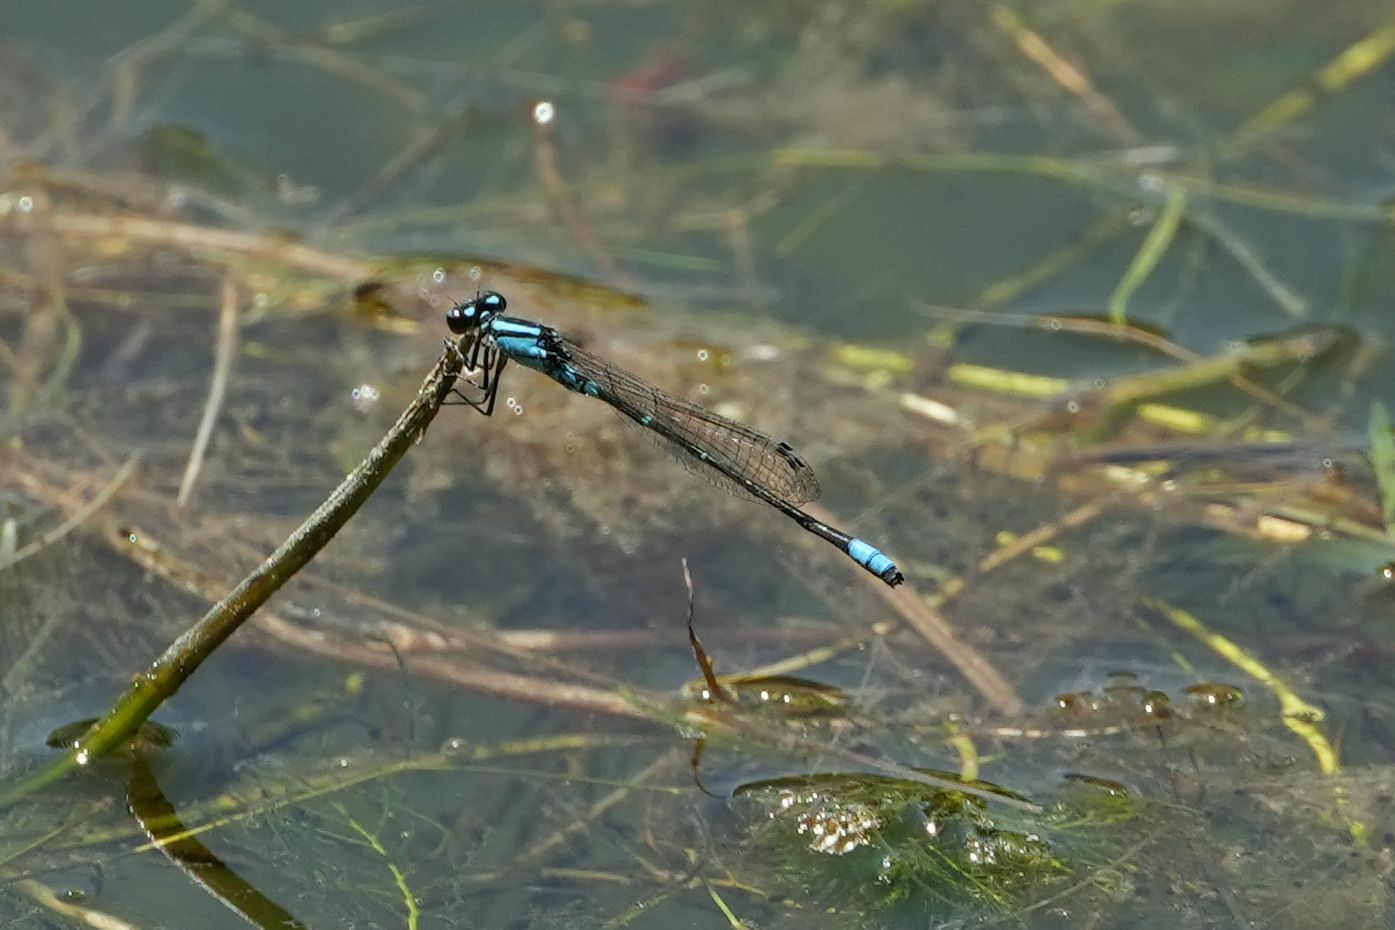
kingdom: Animalia
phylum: Arthropoda
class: Insecta
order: Odonata
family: Coenagrionidae
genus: Enallagma
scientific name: Enallagma geminatum
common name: Skimming bluet
